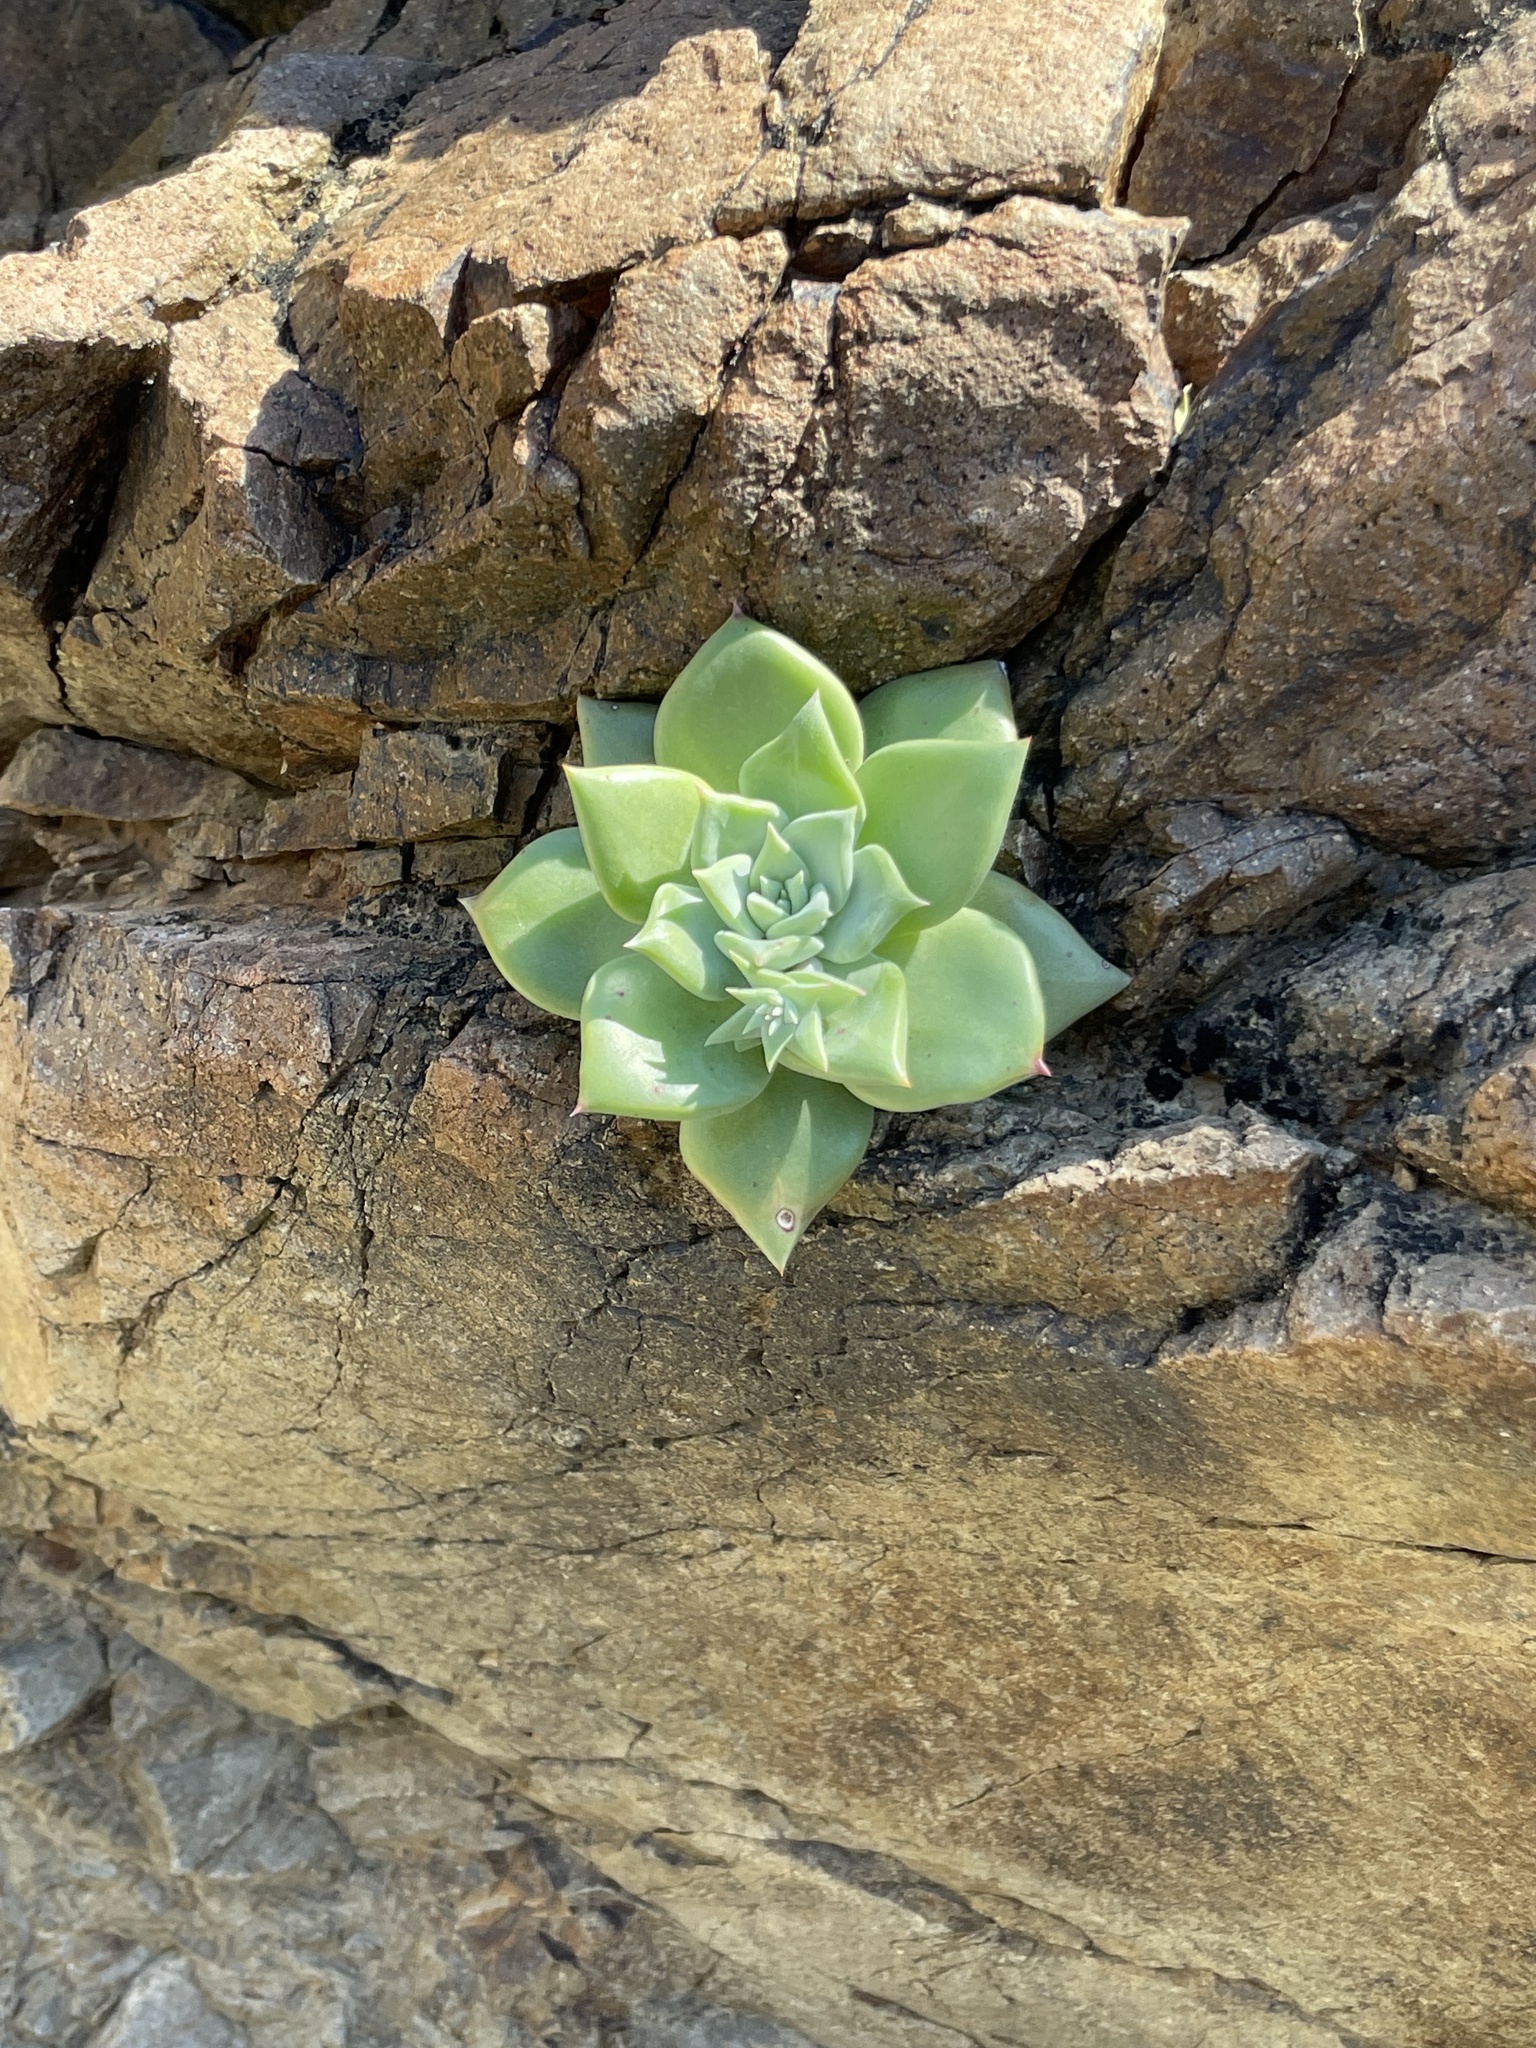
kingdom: Plantae
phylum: Tracheophyta
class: Magnoliopsida
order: Saxifragales
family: Crassulaceae
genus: Dudleya
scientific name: Dudleya cochimiana
